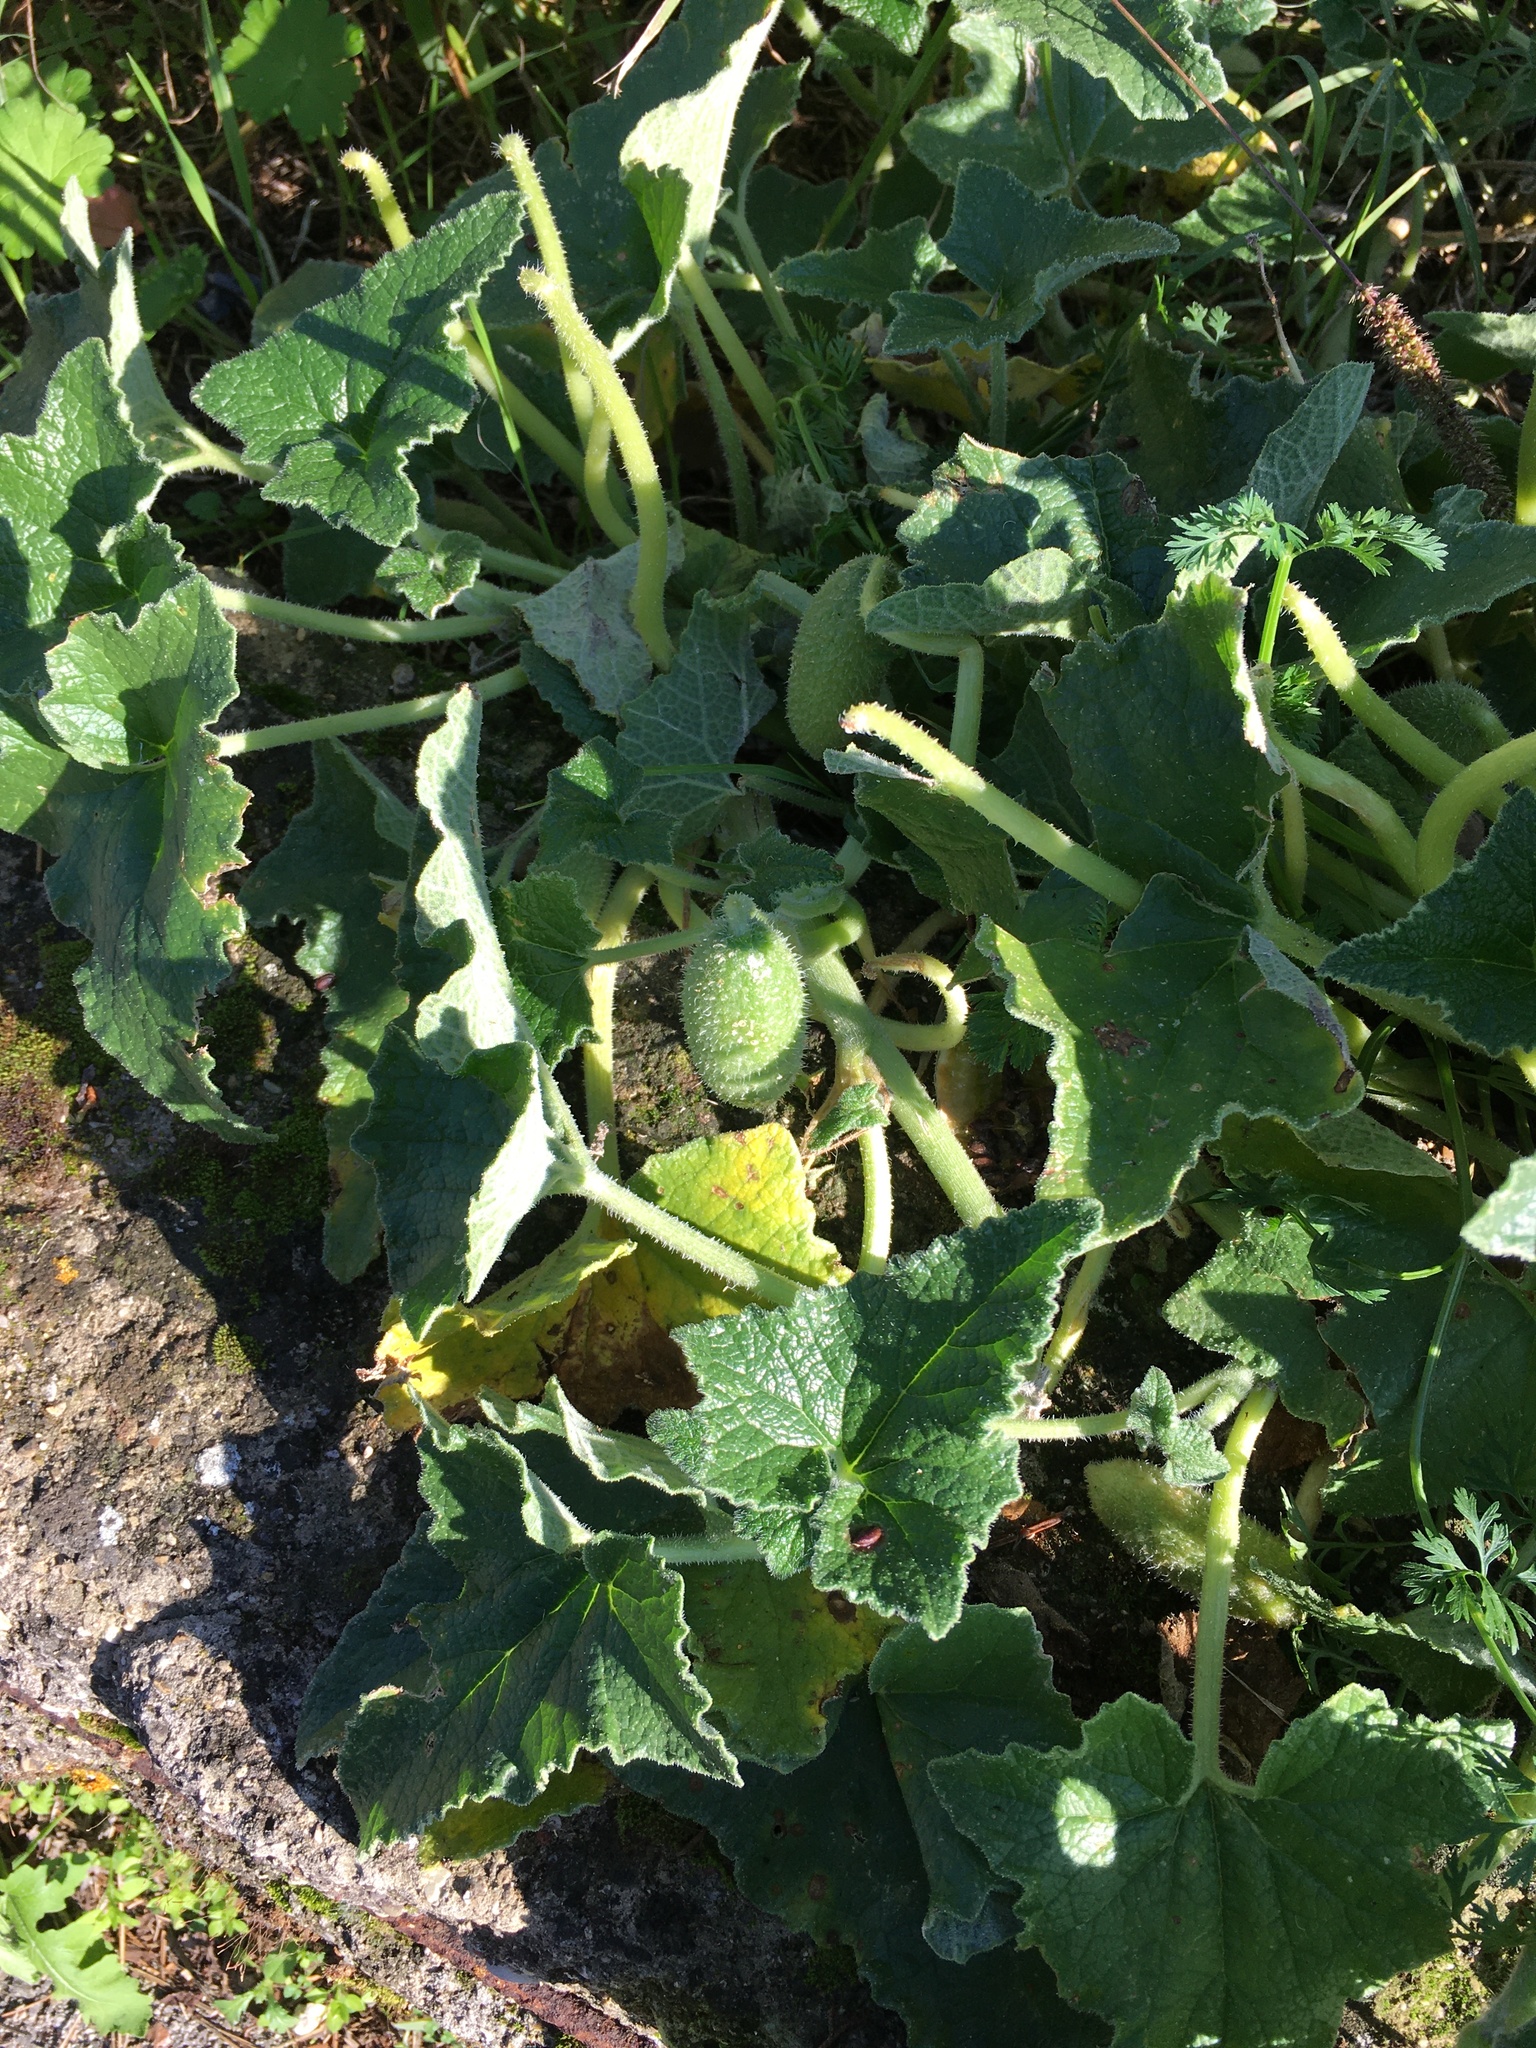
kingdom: Plantae
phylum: Tracheophyta
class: Magnoliopsida
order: Cucurbitales
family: Cucurbitaceae
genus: Ecballium
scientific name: Ecballium elaterium
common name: Squirting cucumber
